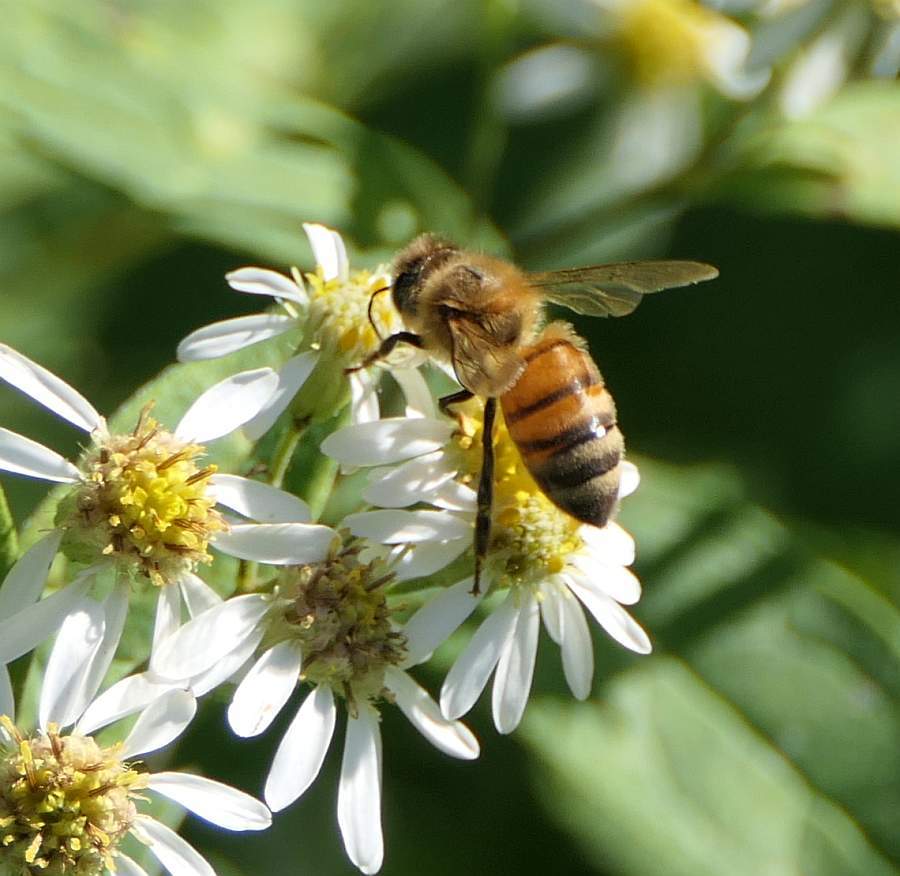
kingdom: Animalia
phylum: Arthropoda
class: Insecta
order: Hymenoptera
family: Apidae
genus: Apis
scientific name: Apis mellifera
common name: Honey bee
